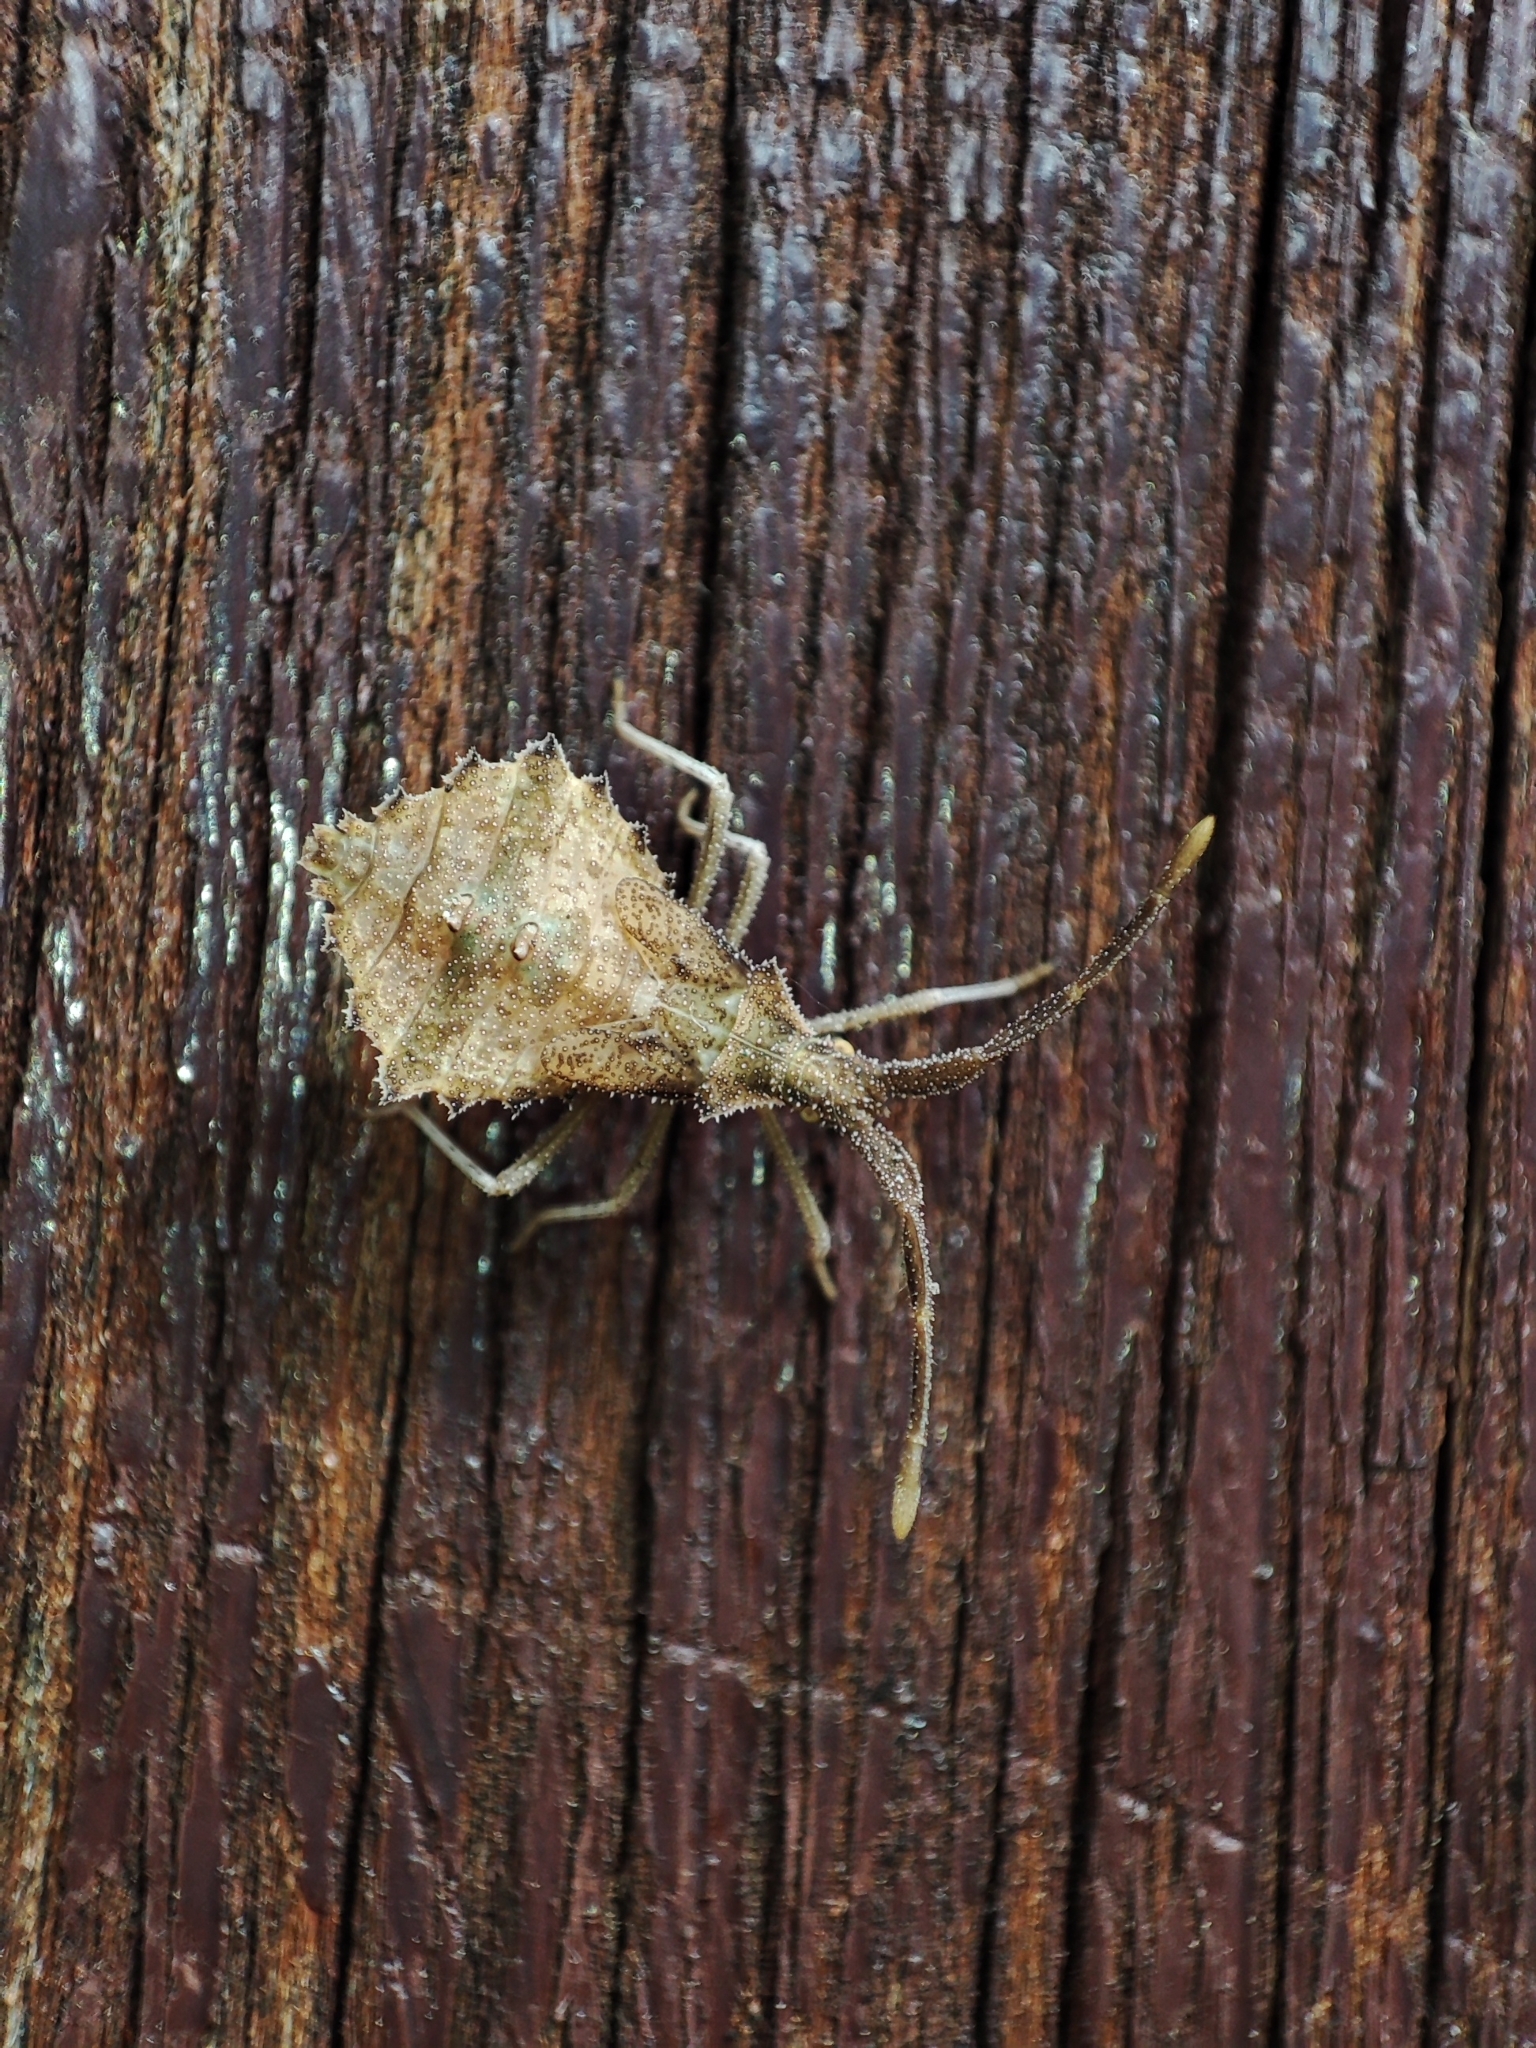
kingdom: Animalia
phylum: Arthropoda
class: Insecta
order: Hemiptera
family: Coreidae
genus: Syromastus
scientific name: Syromastus rhombeus
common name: Rhombic leatherbug
